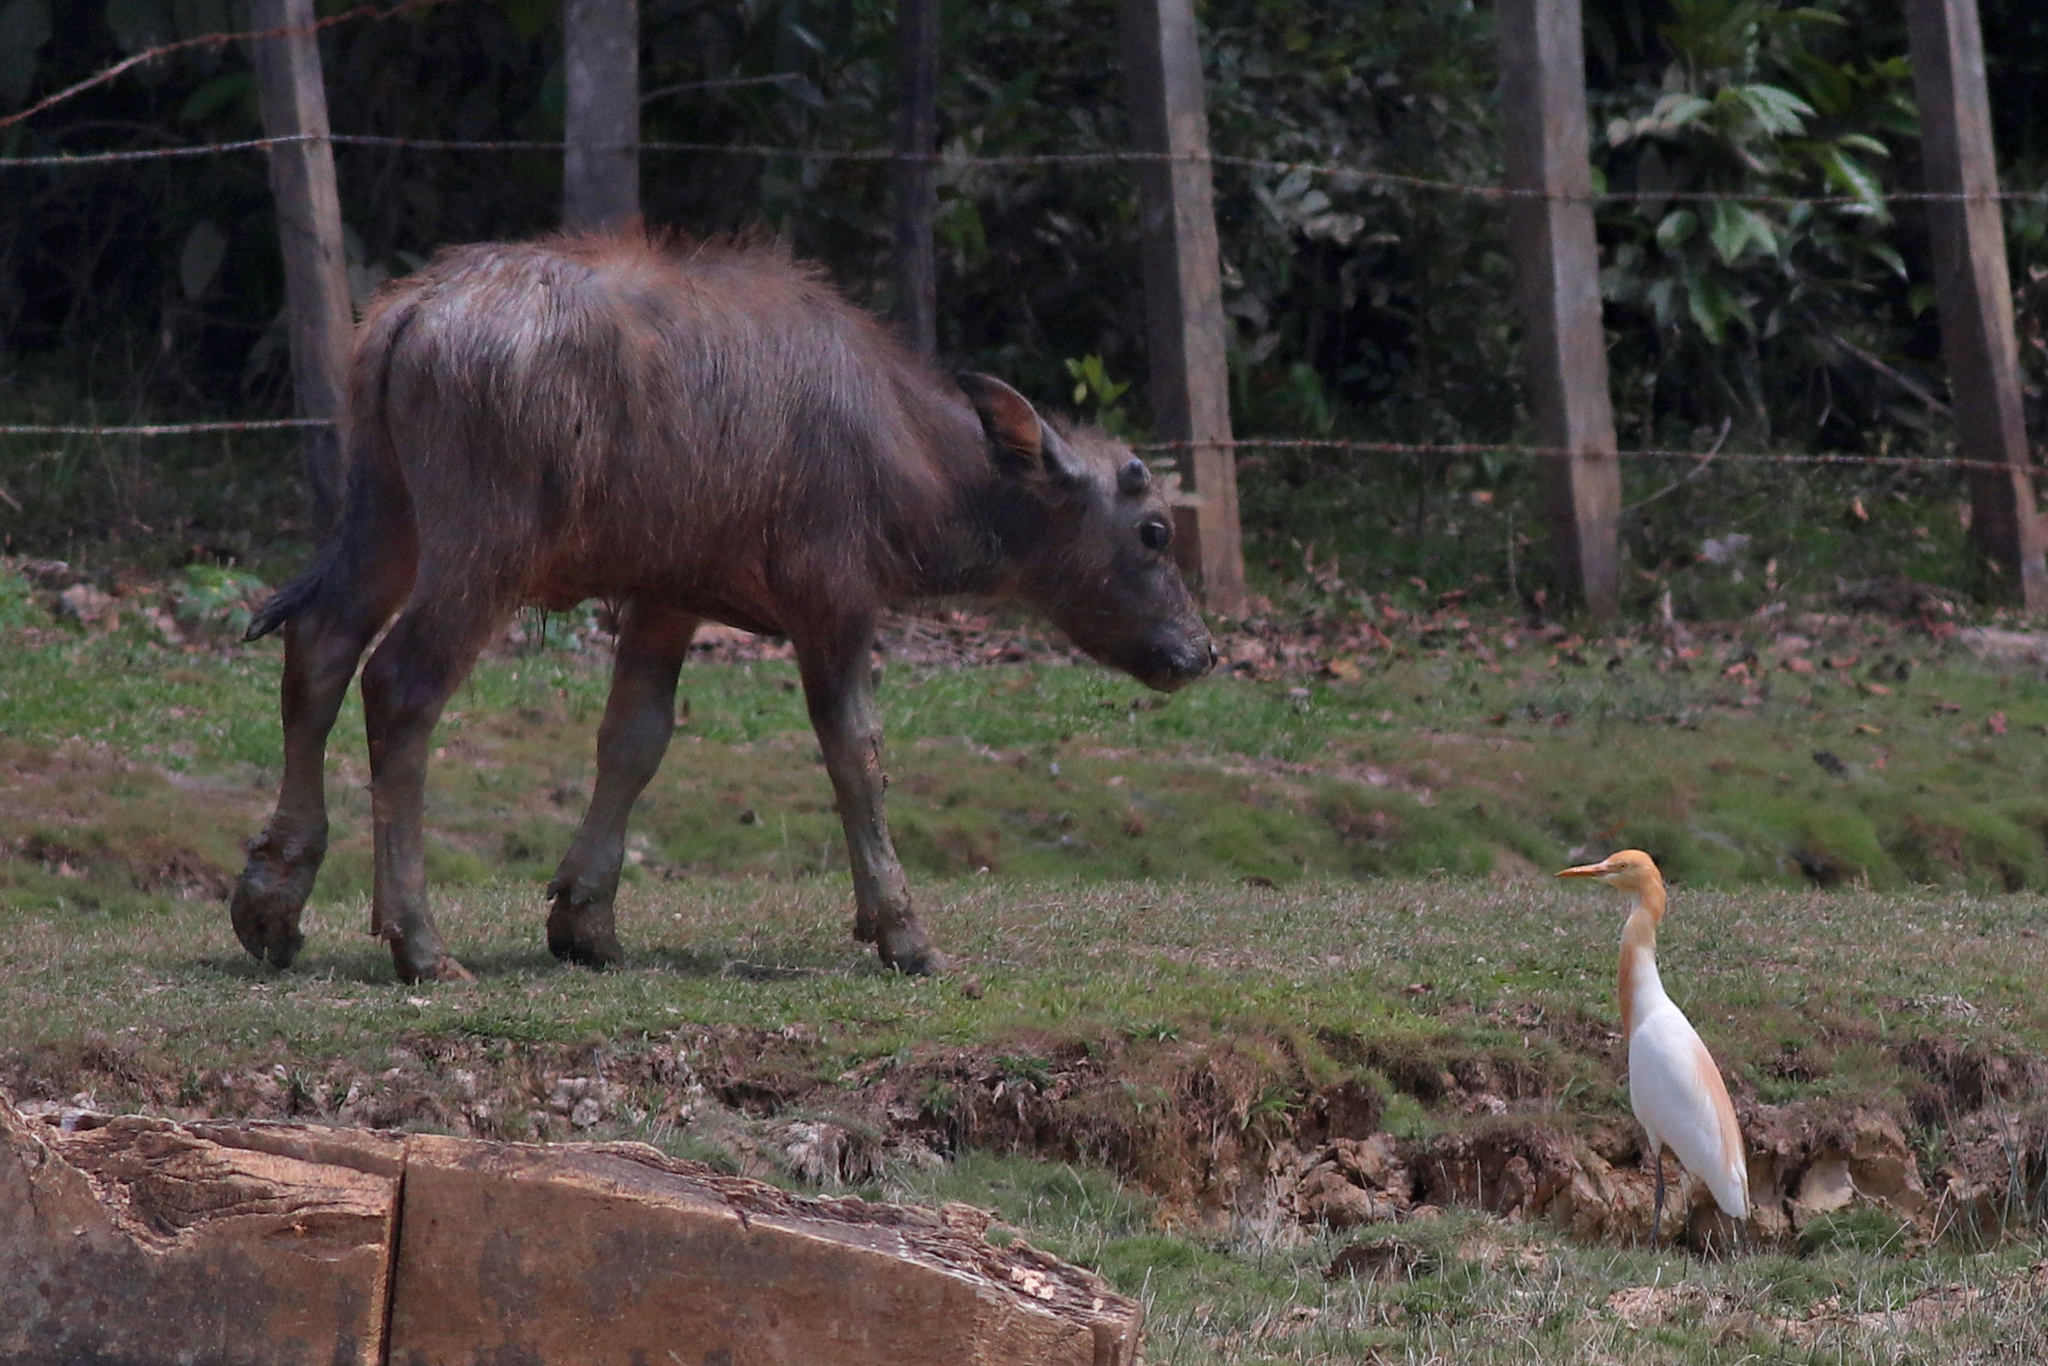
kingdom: Animalia
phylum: Chordata
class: Aves
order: Pelecaniformes
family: Ardeidae
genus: Bubulcus
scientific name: Bubulcus coromandus
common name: Eastern cattle egret
